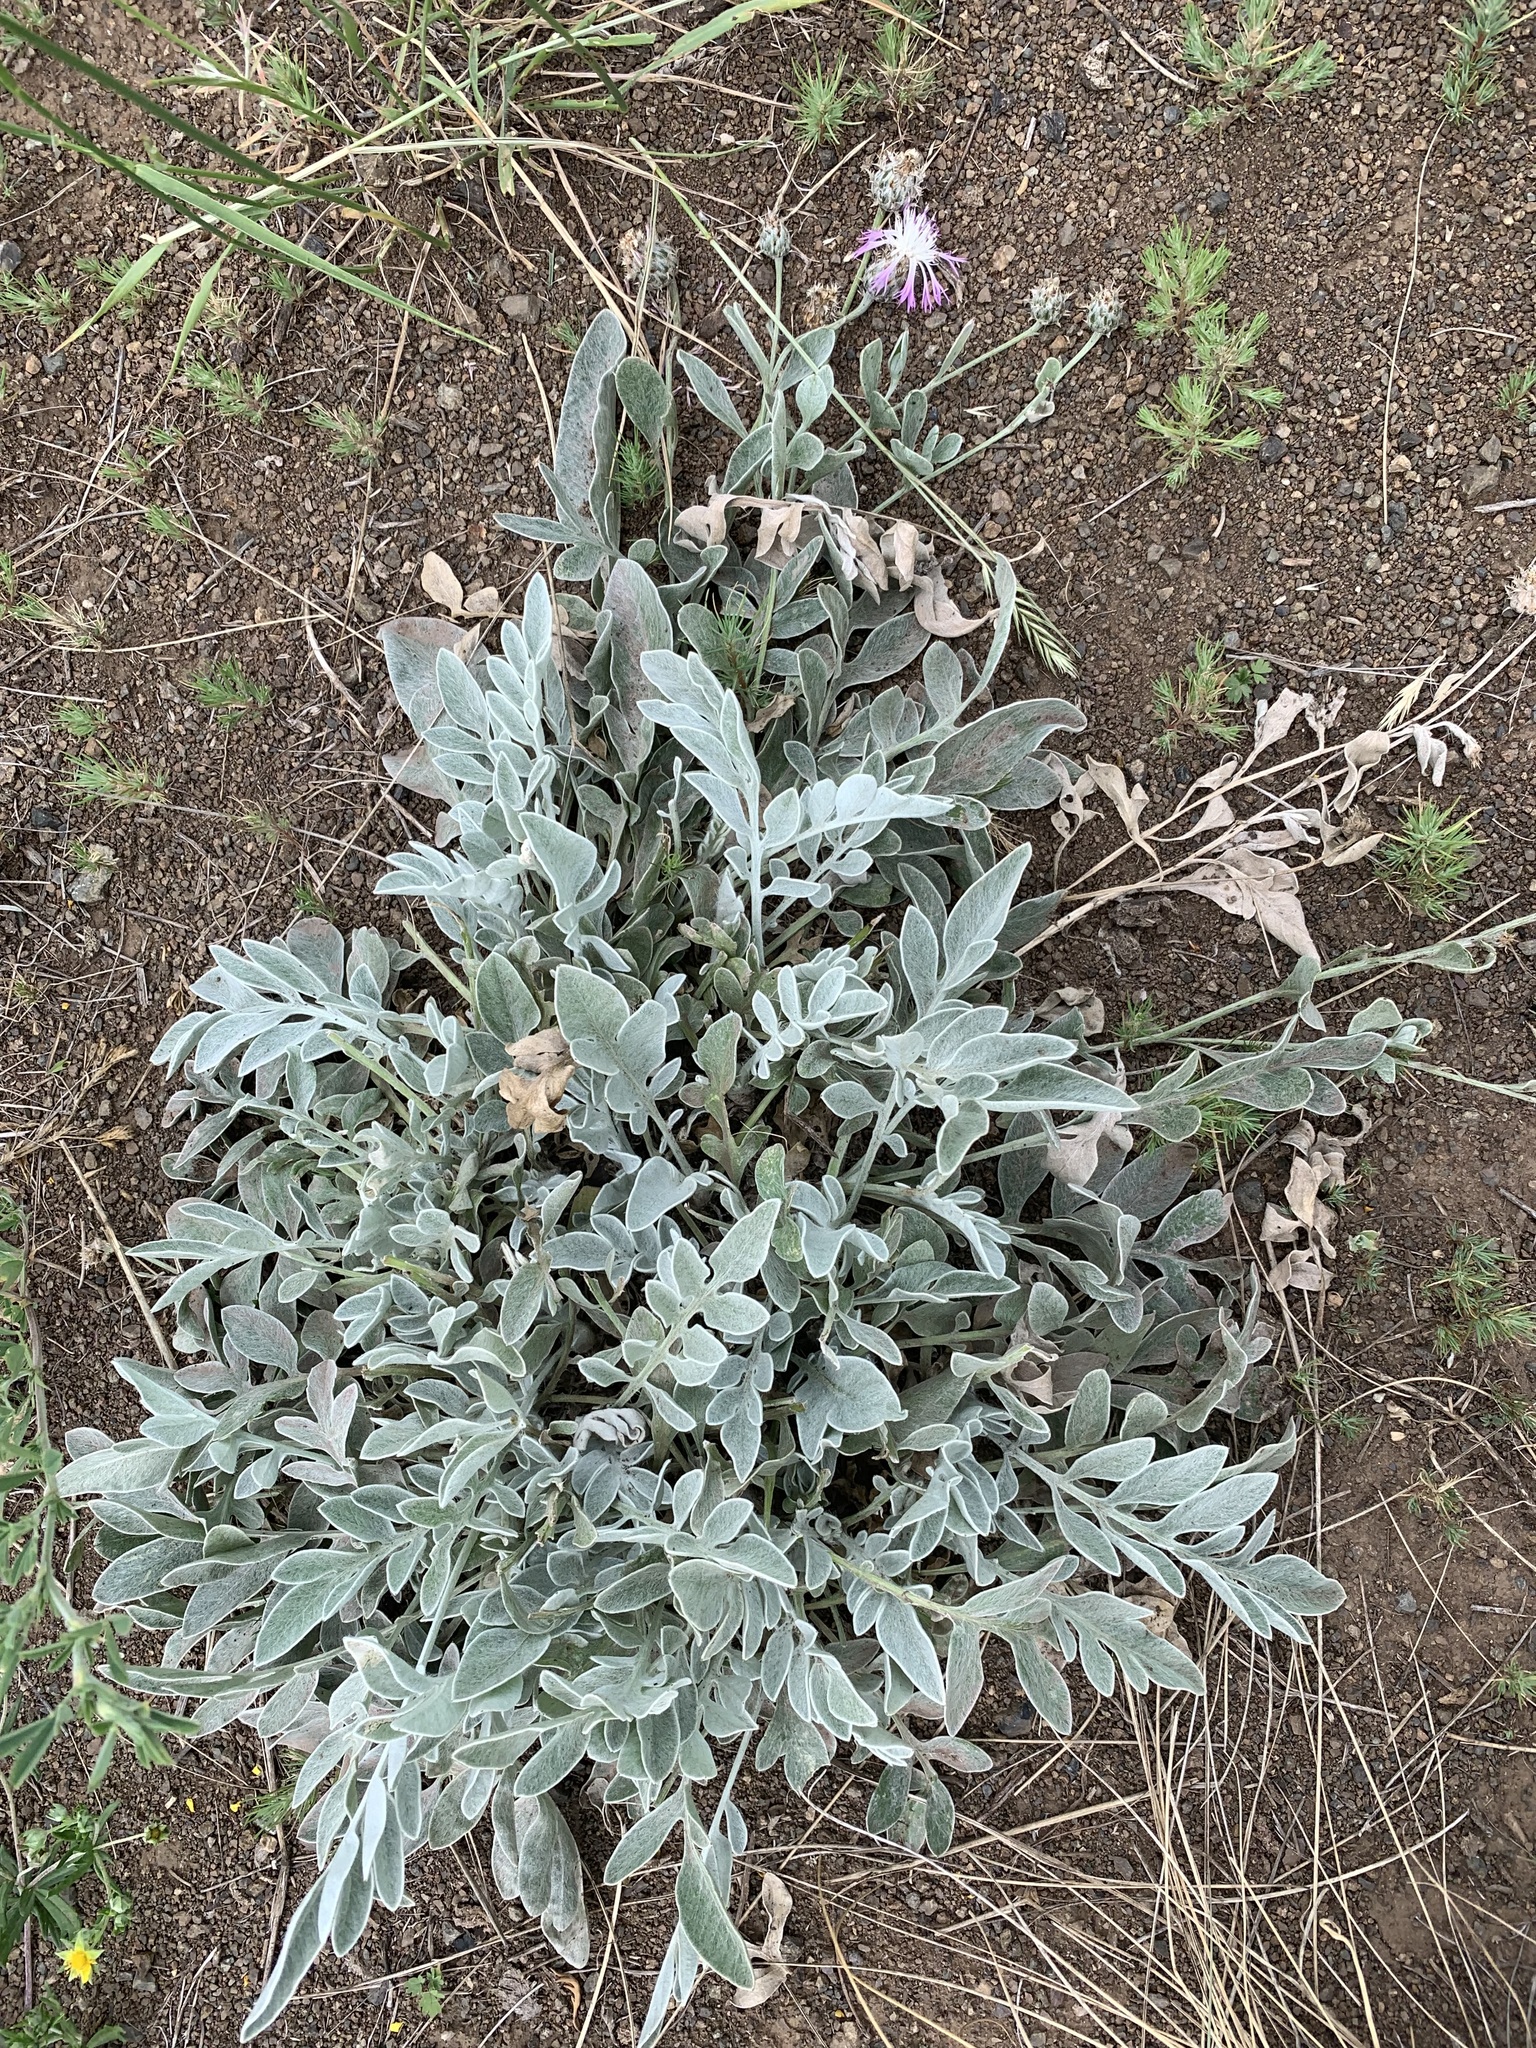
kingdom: Plantae
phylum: Tracheophyta
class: Magnoliopsida
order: Asterales
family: Asteraceae
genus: Psephellus
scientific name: Psephellus marschallianus
